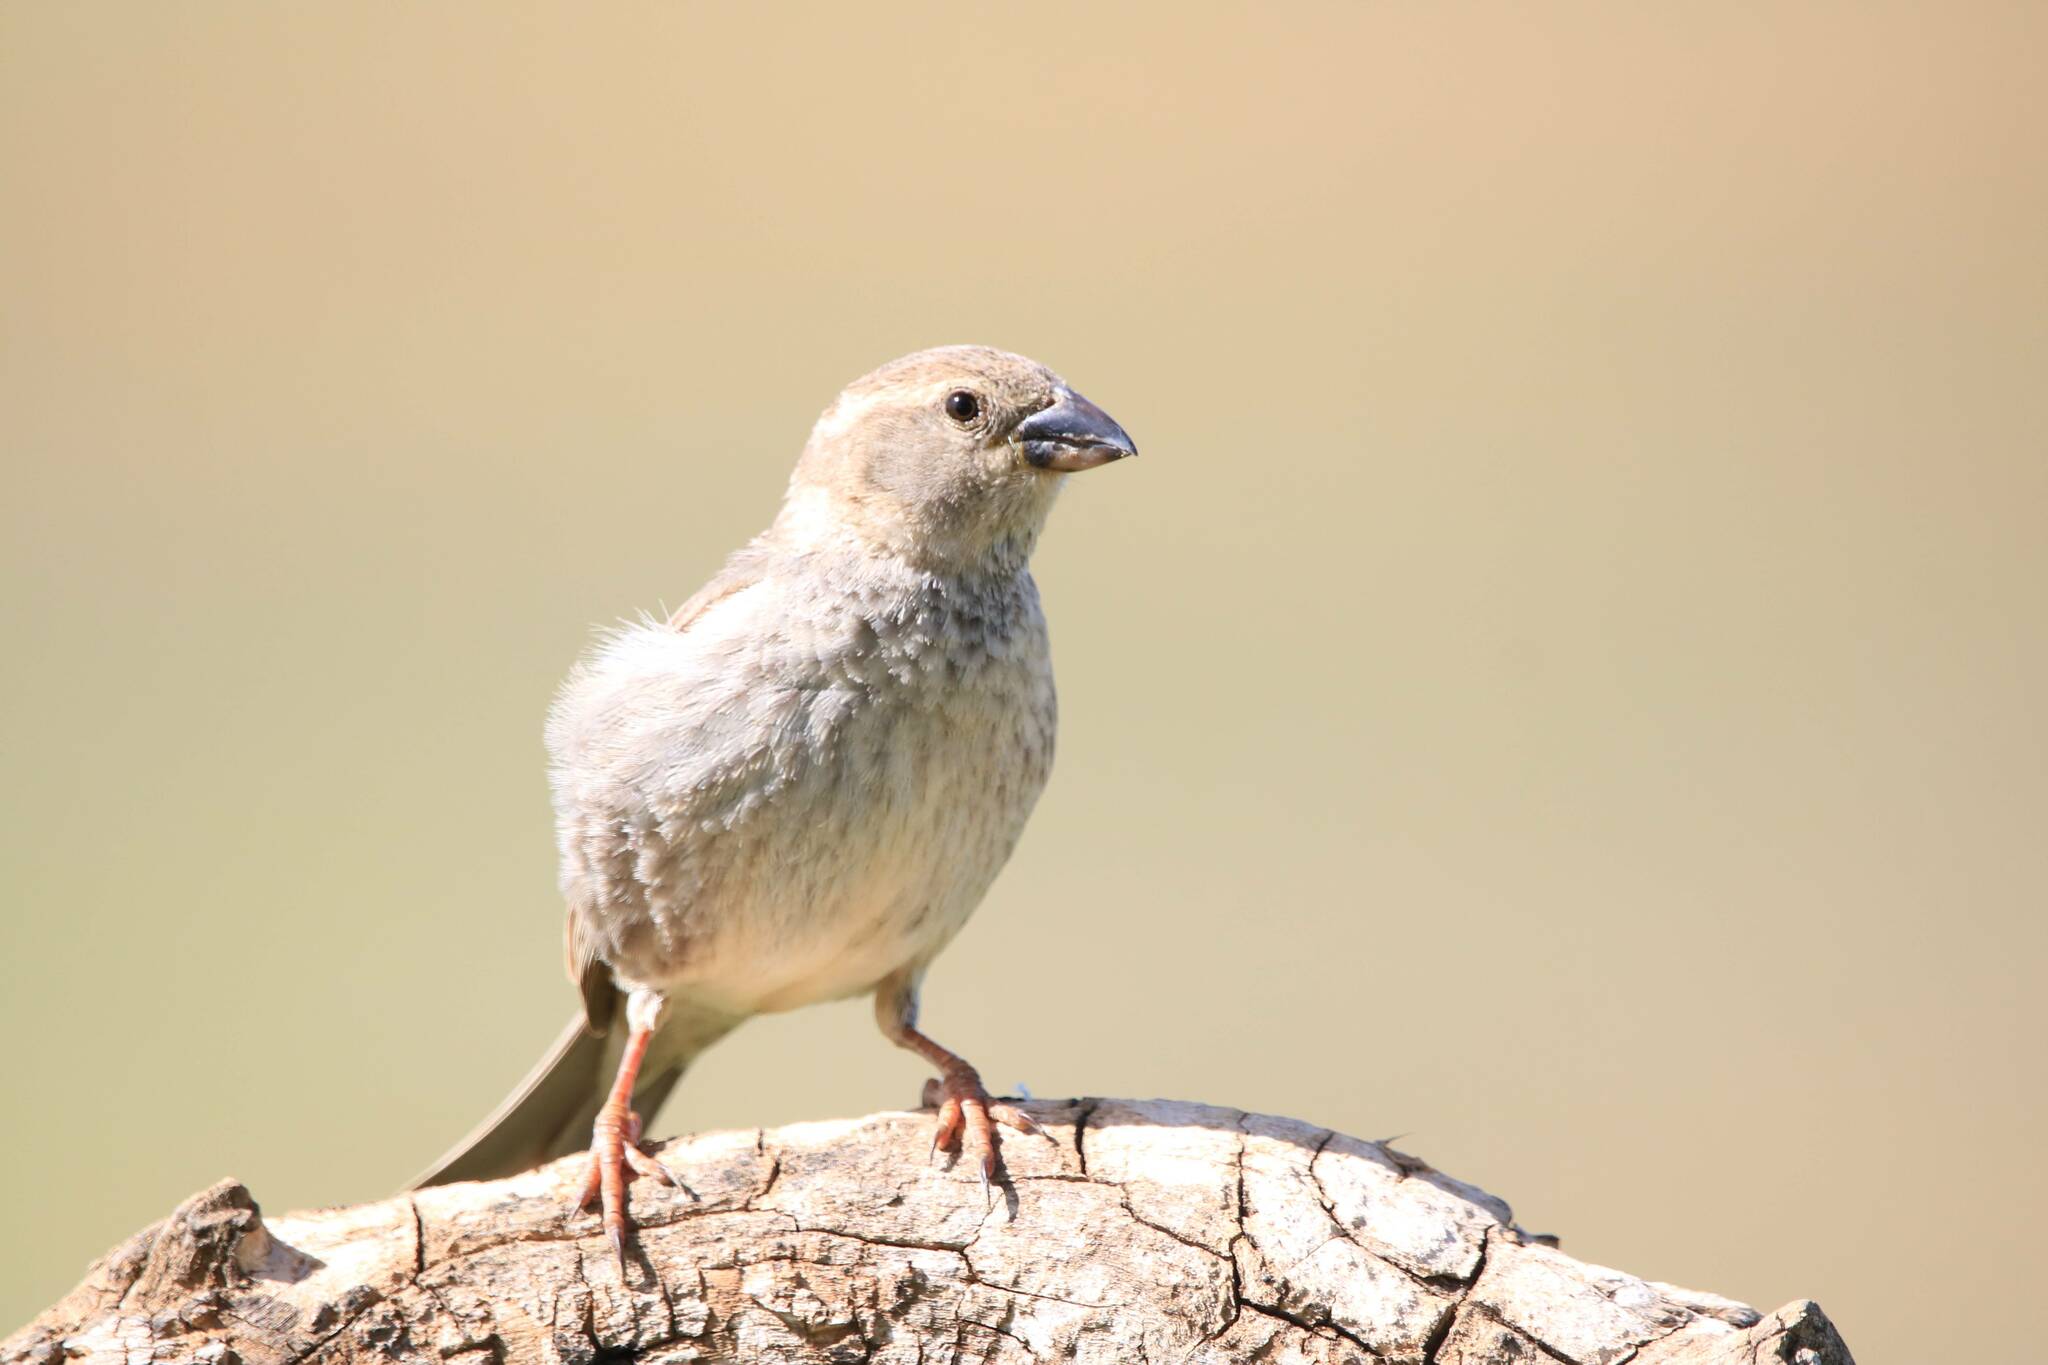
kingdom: Animalia
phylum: Chordata
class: Aves
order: Passeriformes
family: Passeridae
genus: Passer
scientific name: Passer hispaniolensis
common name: Spanish sparrow
